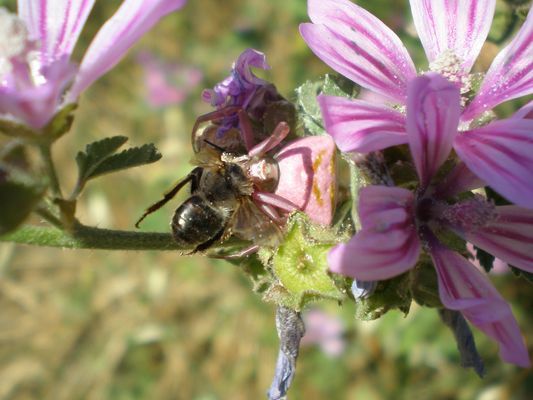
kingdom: Animalia
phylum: Arthropoda
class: Arachnida
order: Araneae
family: Thomisidae
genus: Thomisus
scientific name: Thomisus onustus
